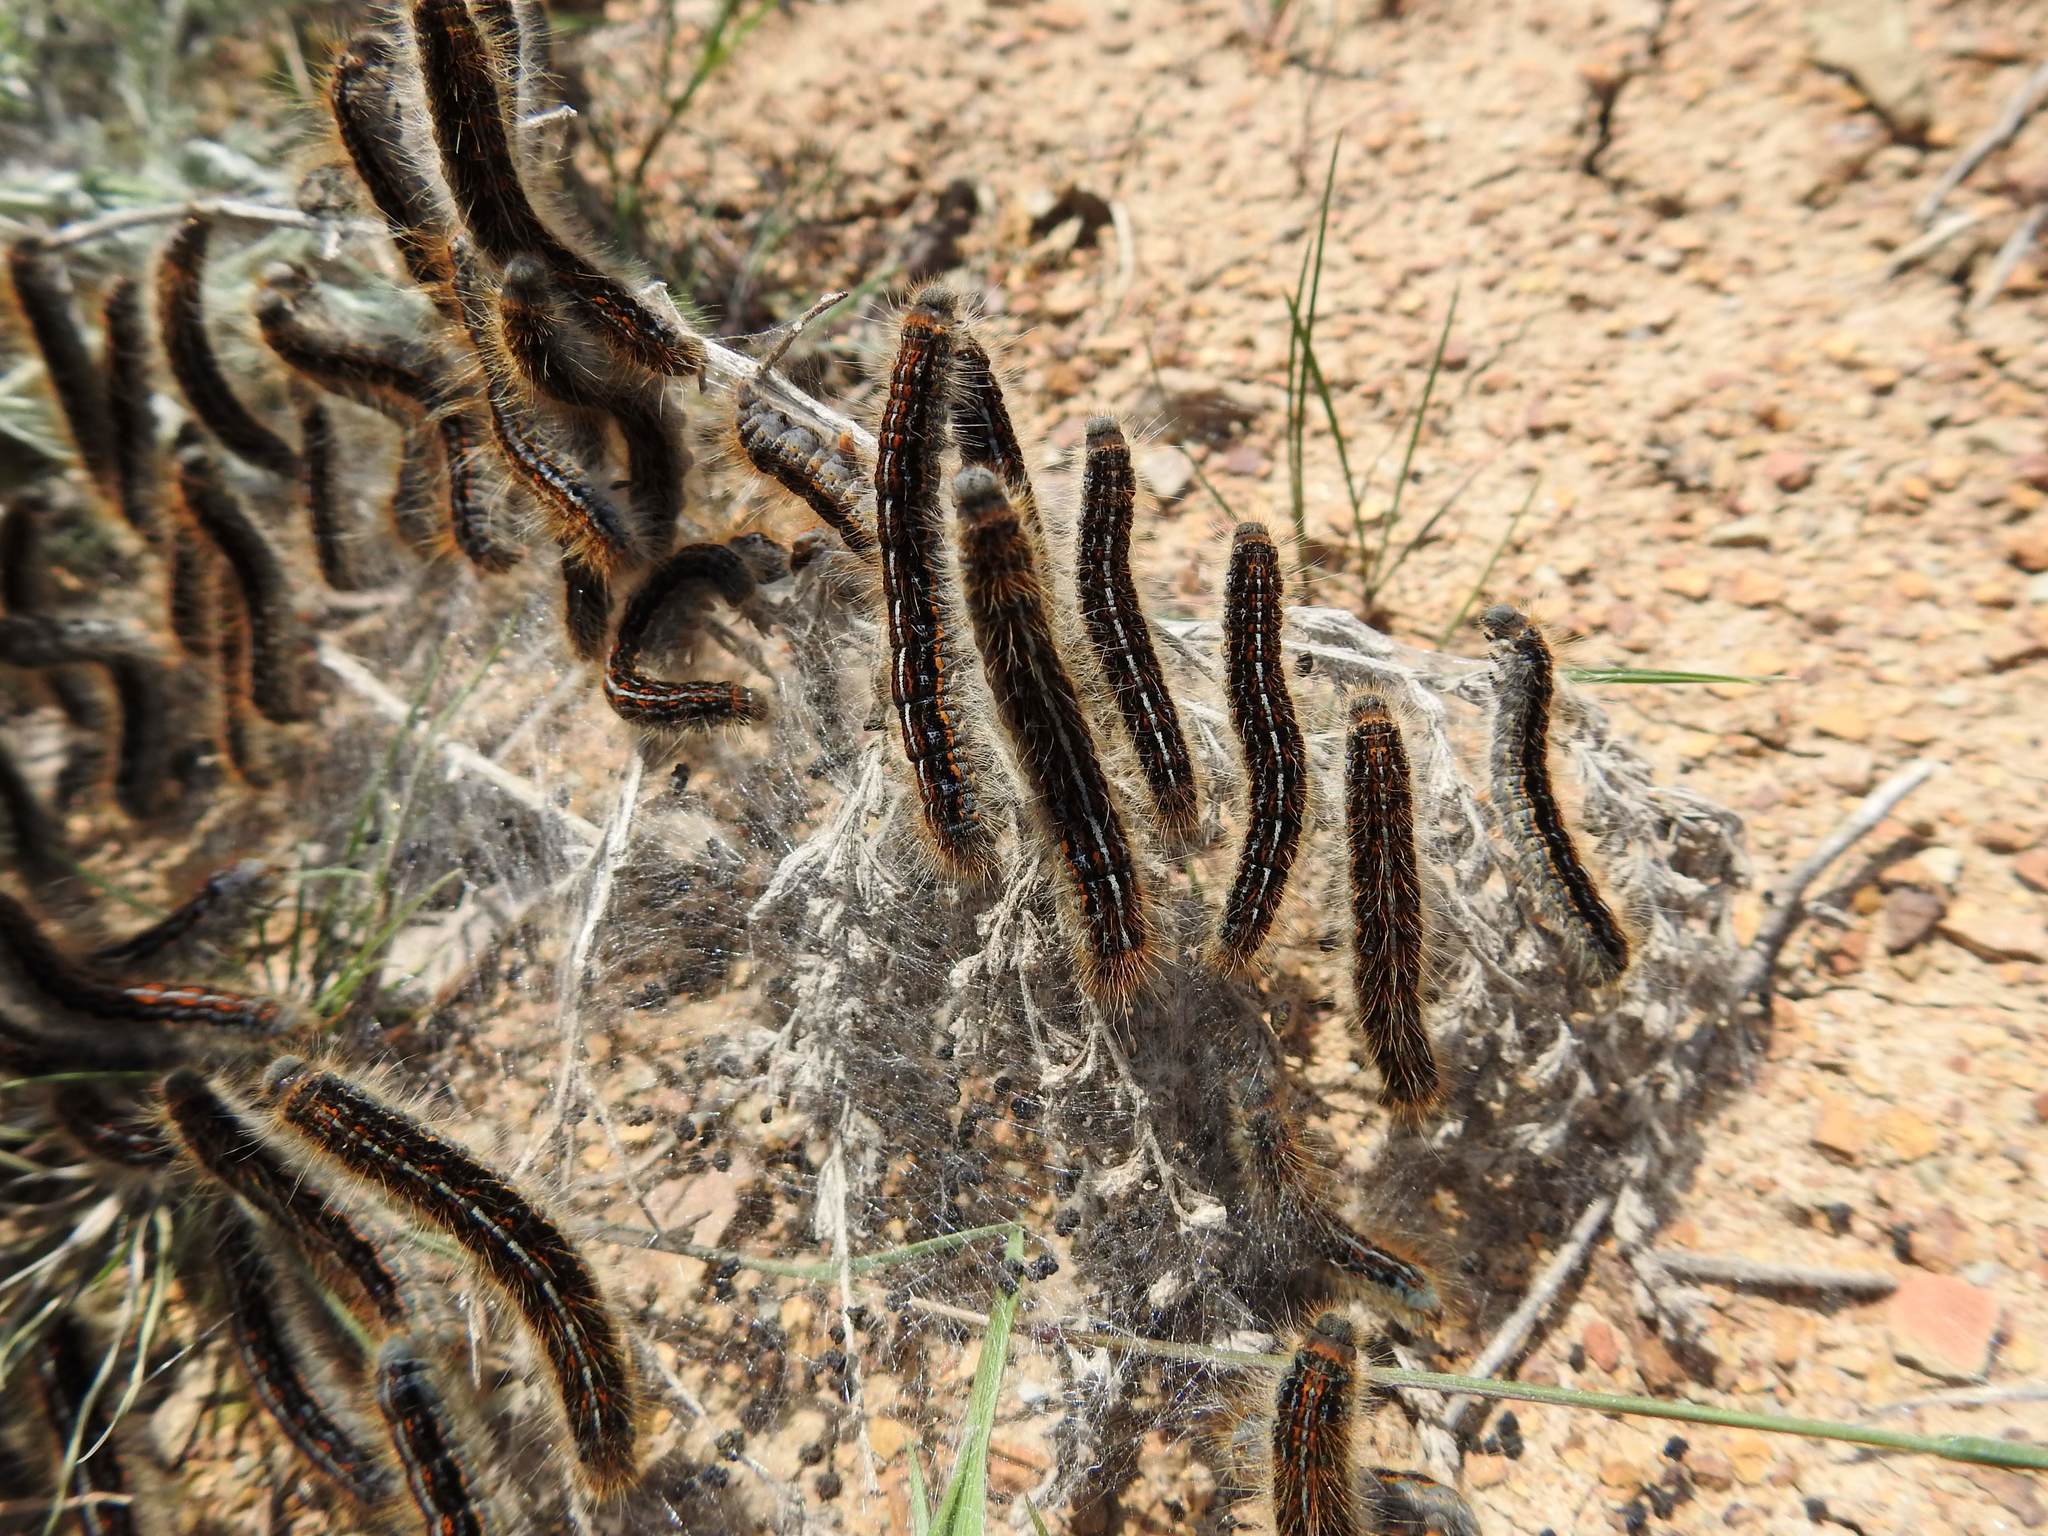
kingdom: Animalia
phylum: Arthropoda
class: Insecta
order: Lepidoptera
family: Lasiocampidae
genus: Malacosoma
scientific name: Malacosoma castrense
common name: Ground lackey
